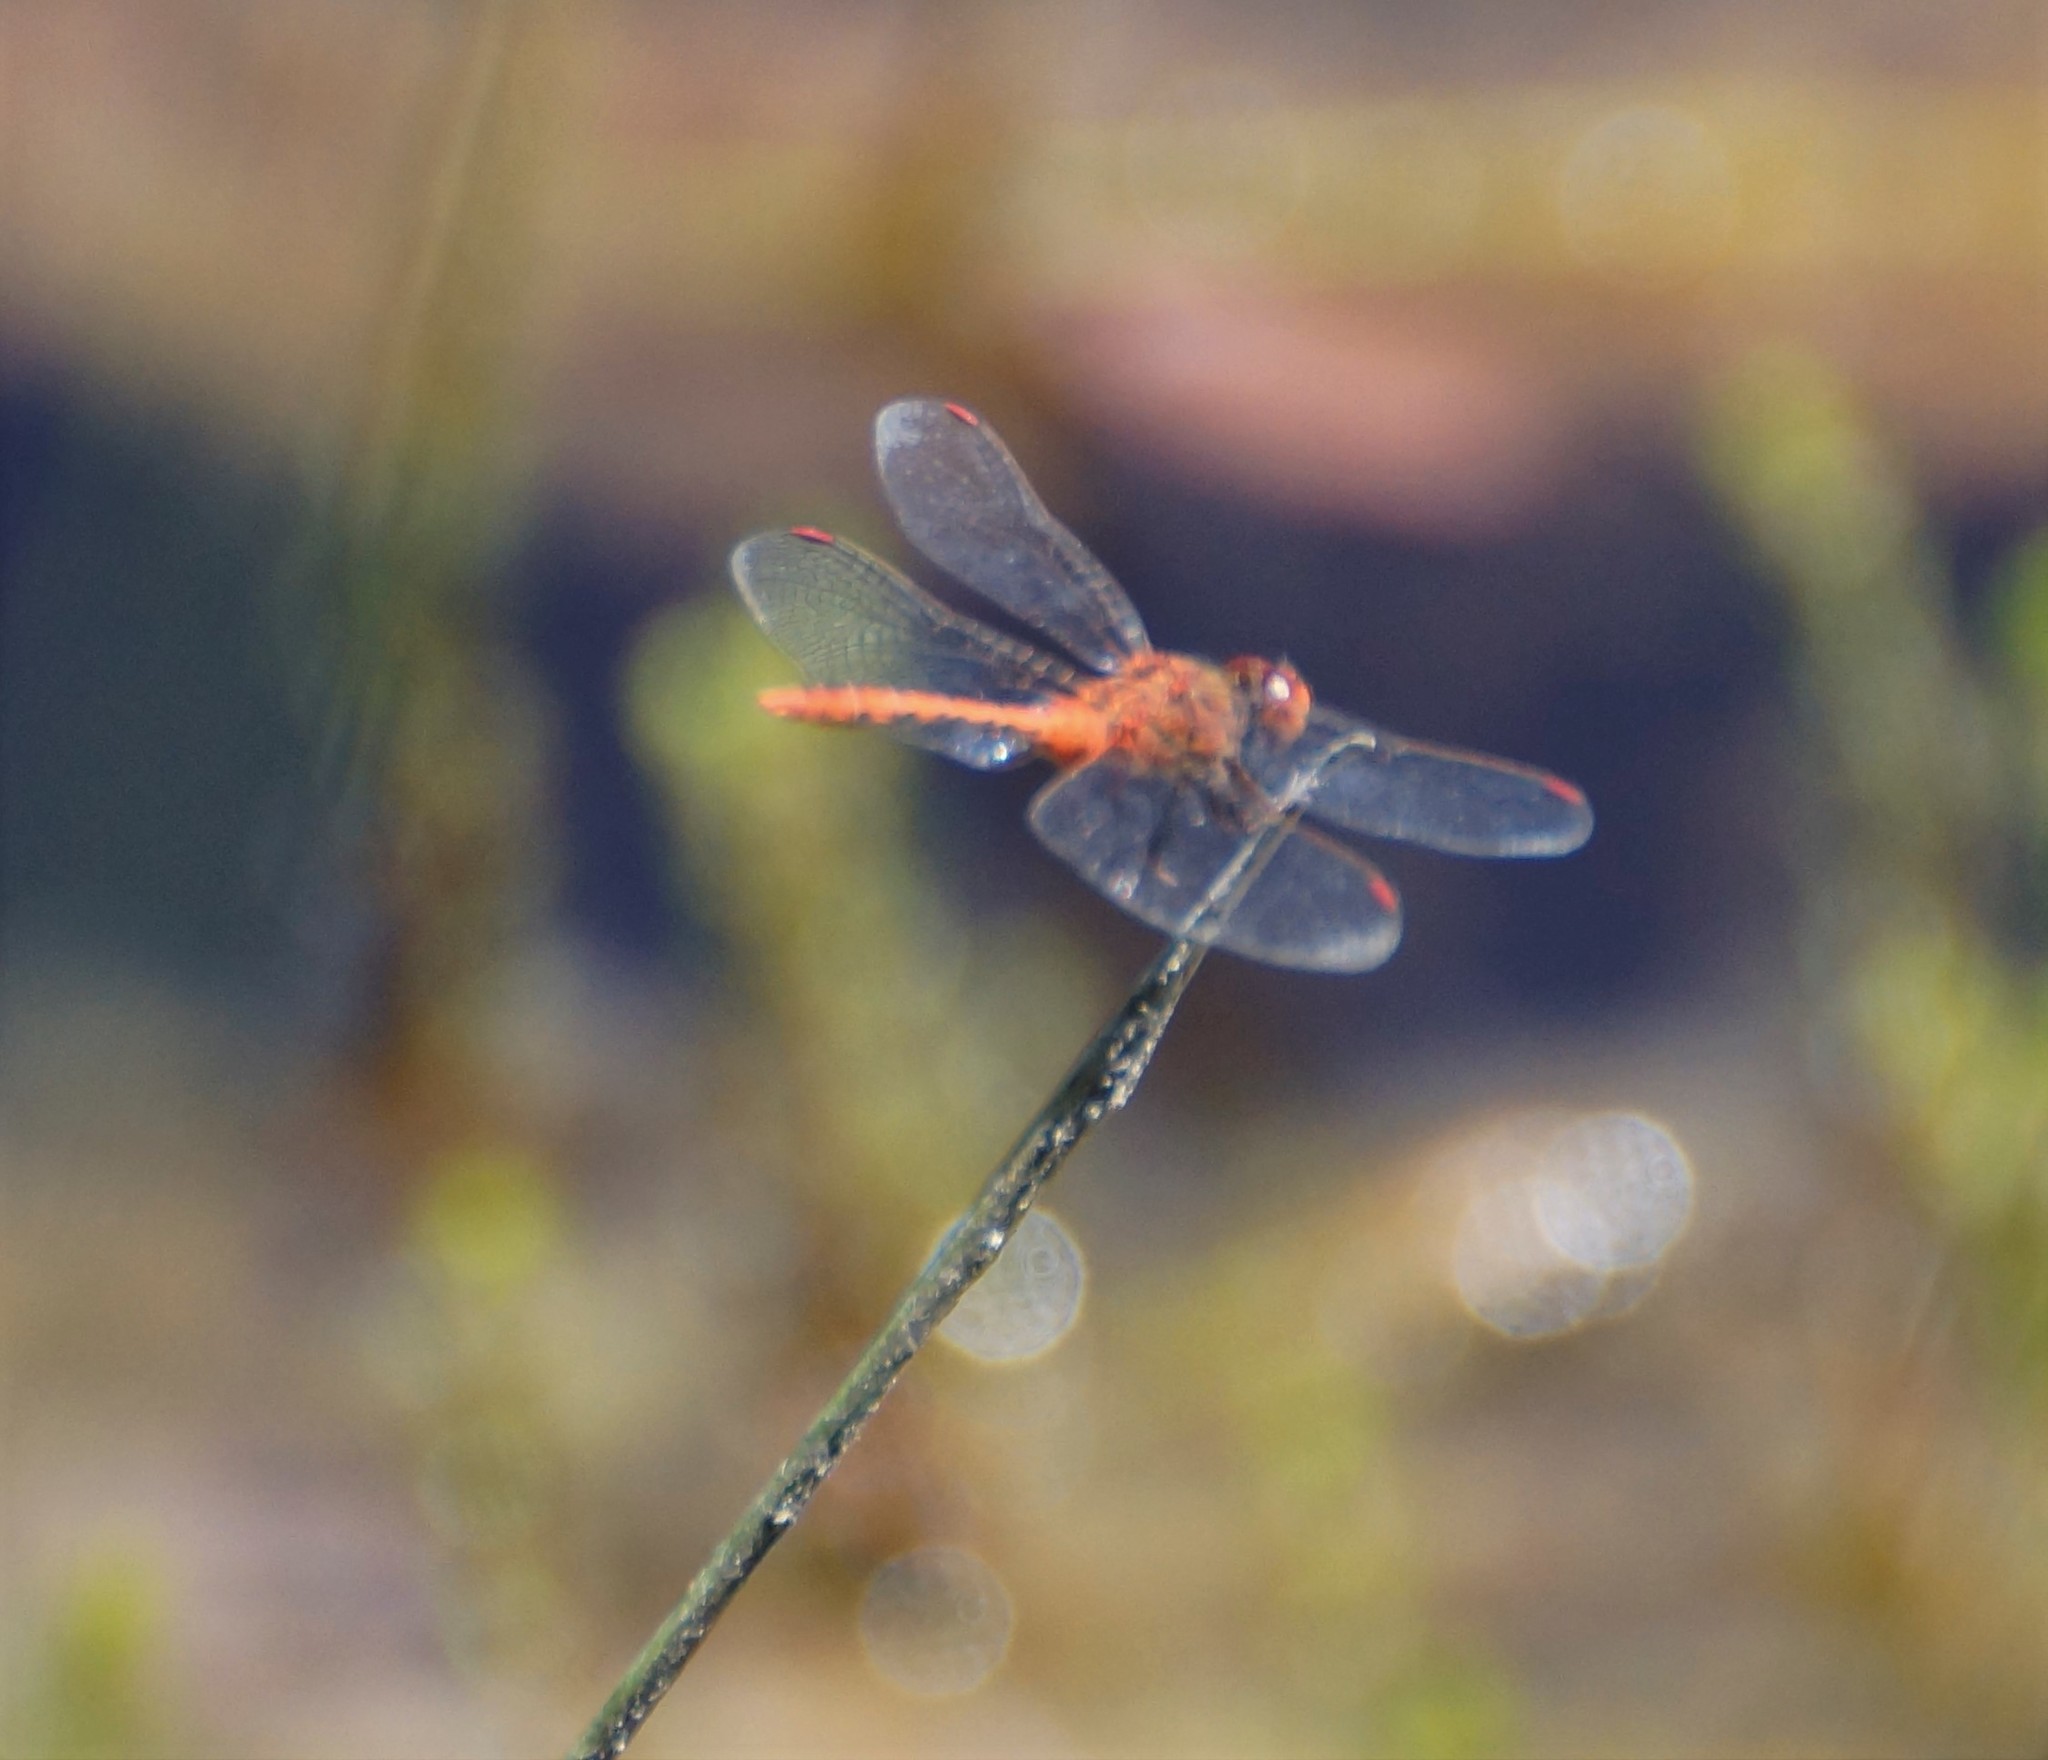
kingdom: Animalia
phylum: Arthropoda
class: Insecta
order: Odonata
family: Libellulidae
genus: Diplacodes
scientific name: Diplacodes bipunctata
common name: Red percher dragonfly
